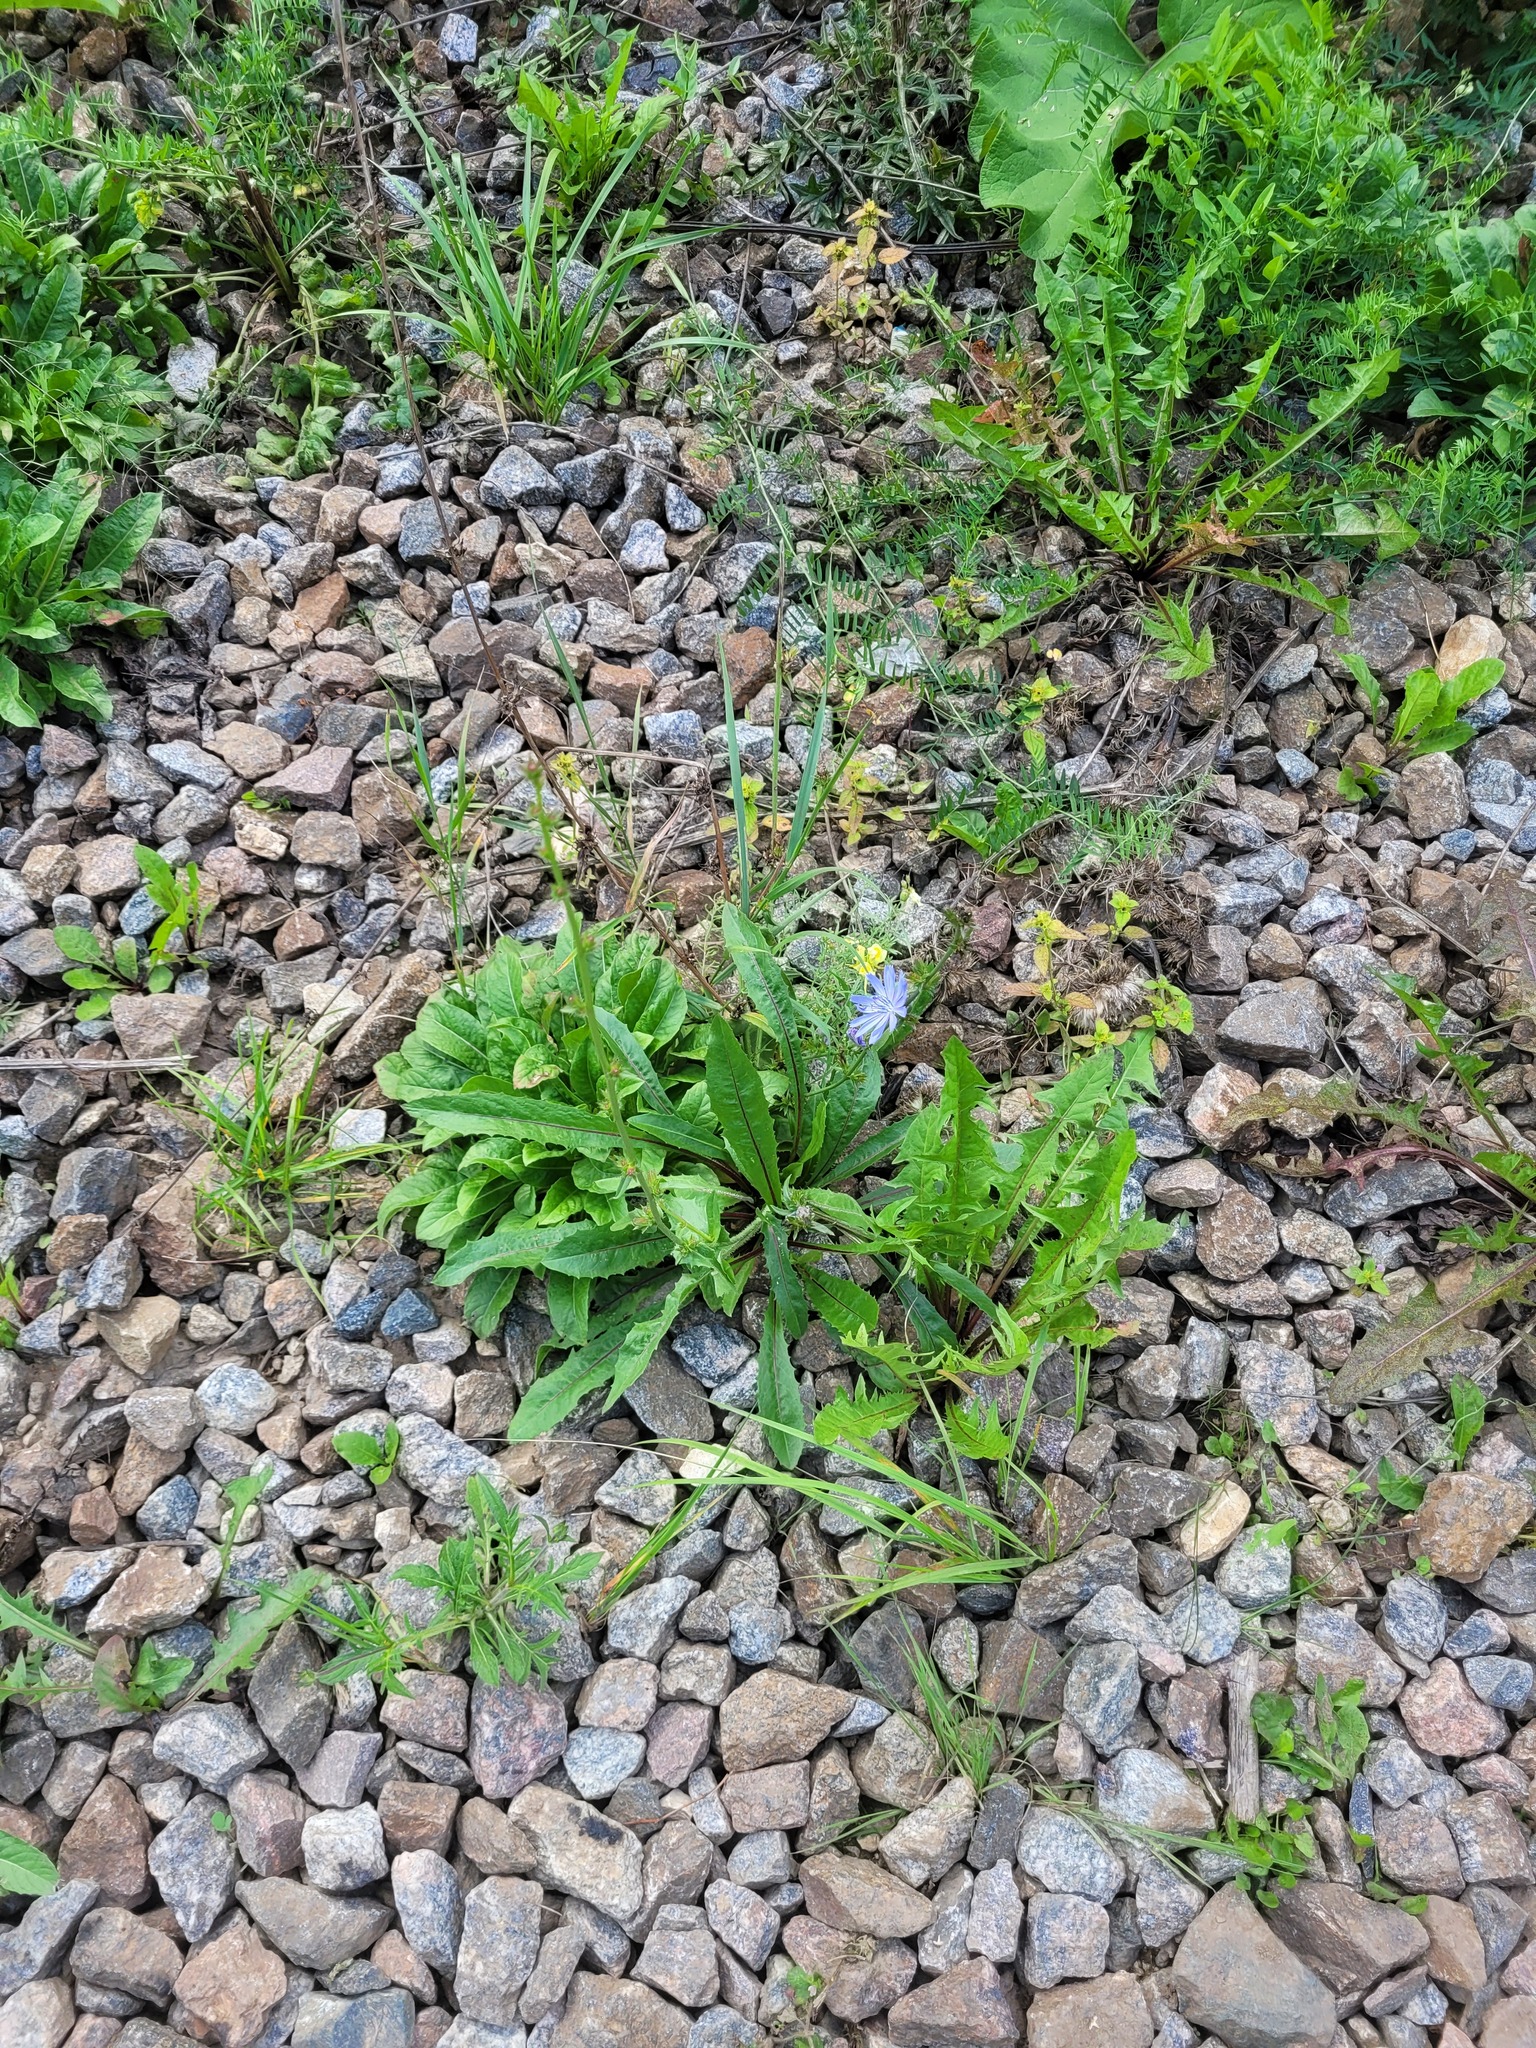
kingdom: Plantae
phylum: Tracheophyta
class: Magnoliopsida
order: Asterales
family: Asteraceae
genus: Cichorium
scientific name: Cichorium intybus
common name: Chicory
